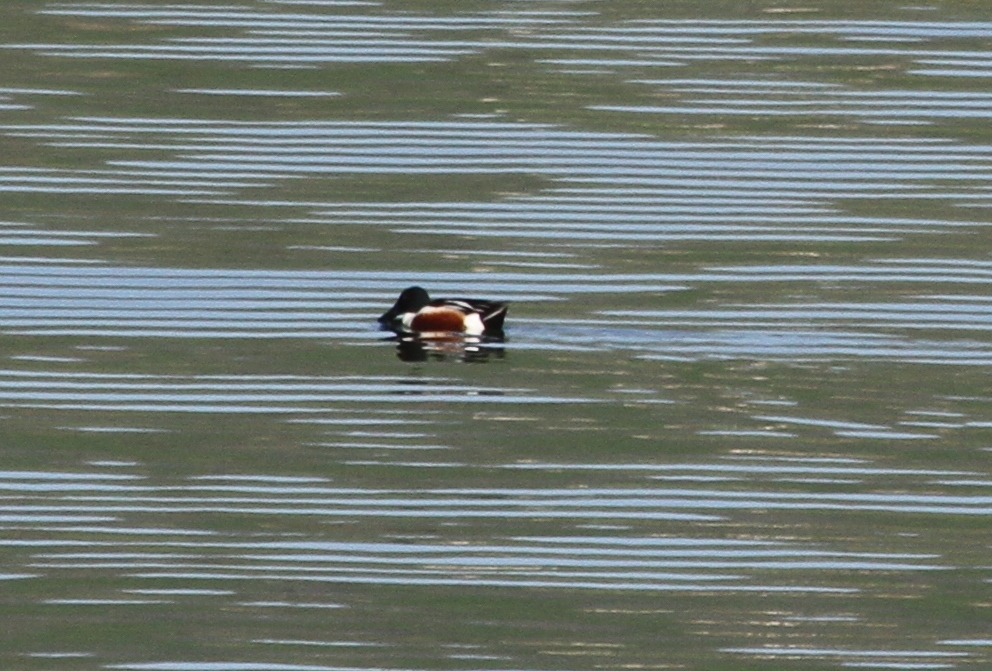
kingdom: Animalia
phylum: Chordata
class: Aves
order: Anseriformes
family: Anatidae
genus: Spatula
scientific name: Spatula clypeata
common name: Northern shoveler
